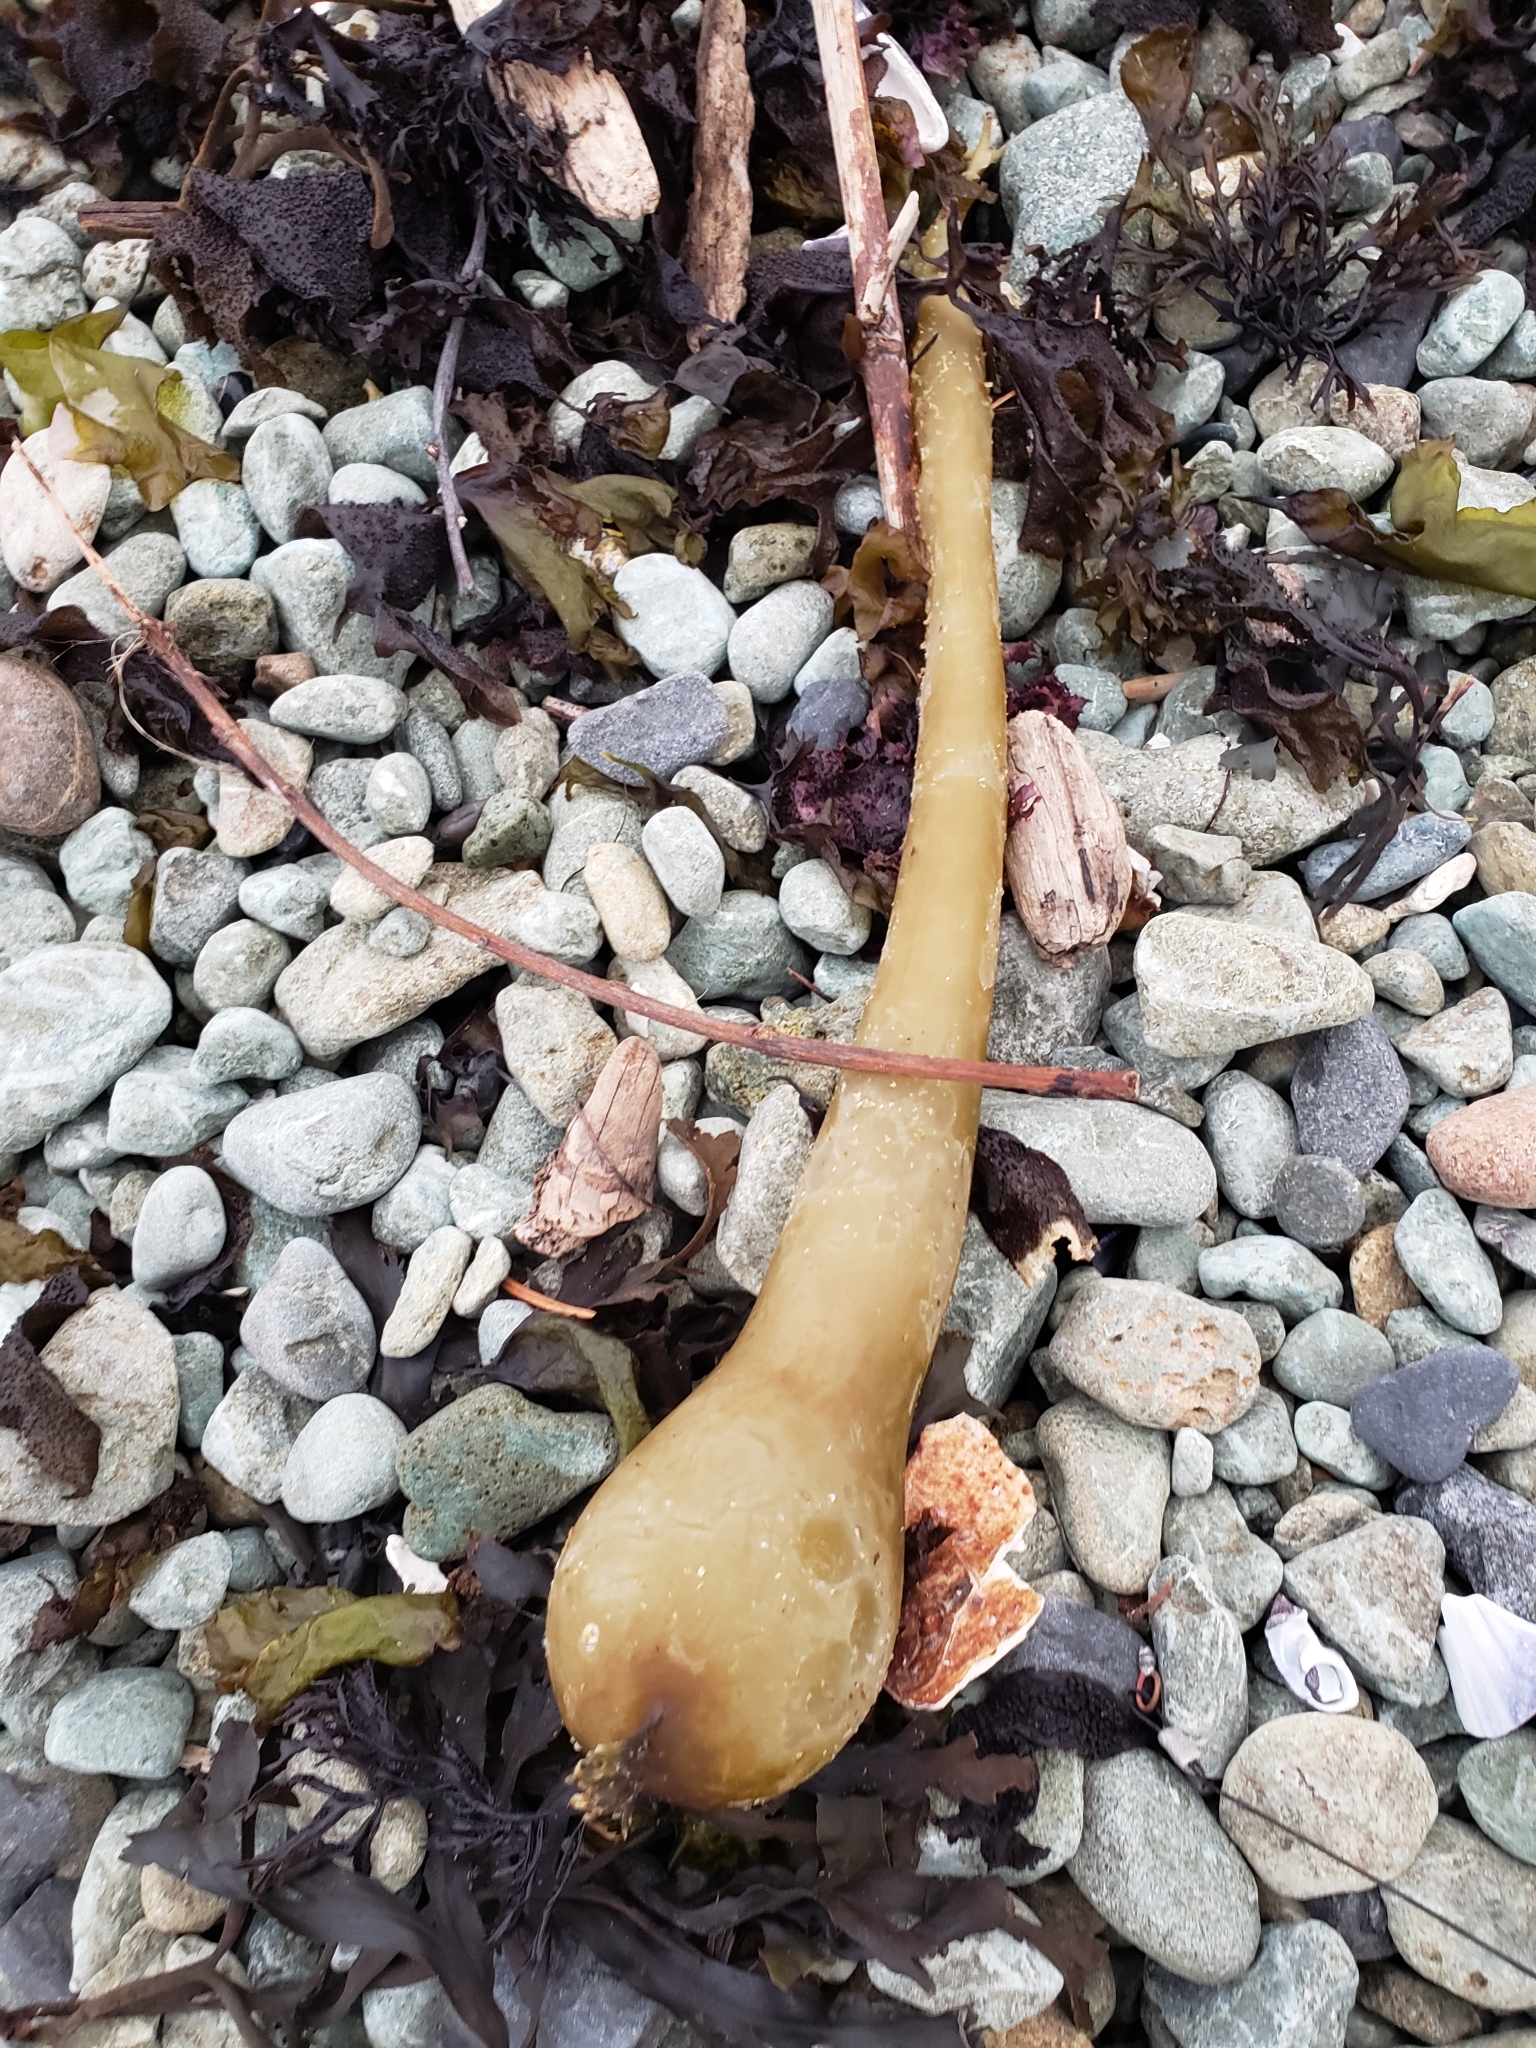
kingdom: Chromista
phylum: Ochrophyta
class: Phaeophyceae
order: Laminariales
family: Laminariaceae
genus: Nereocystis
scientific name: Nereocystis luetkeana
